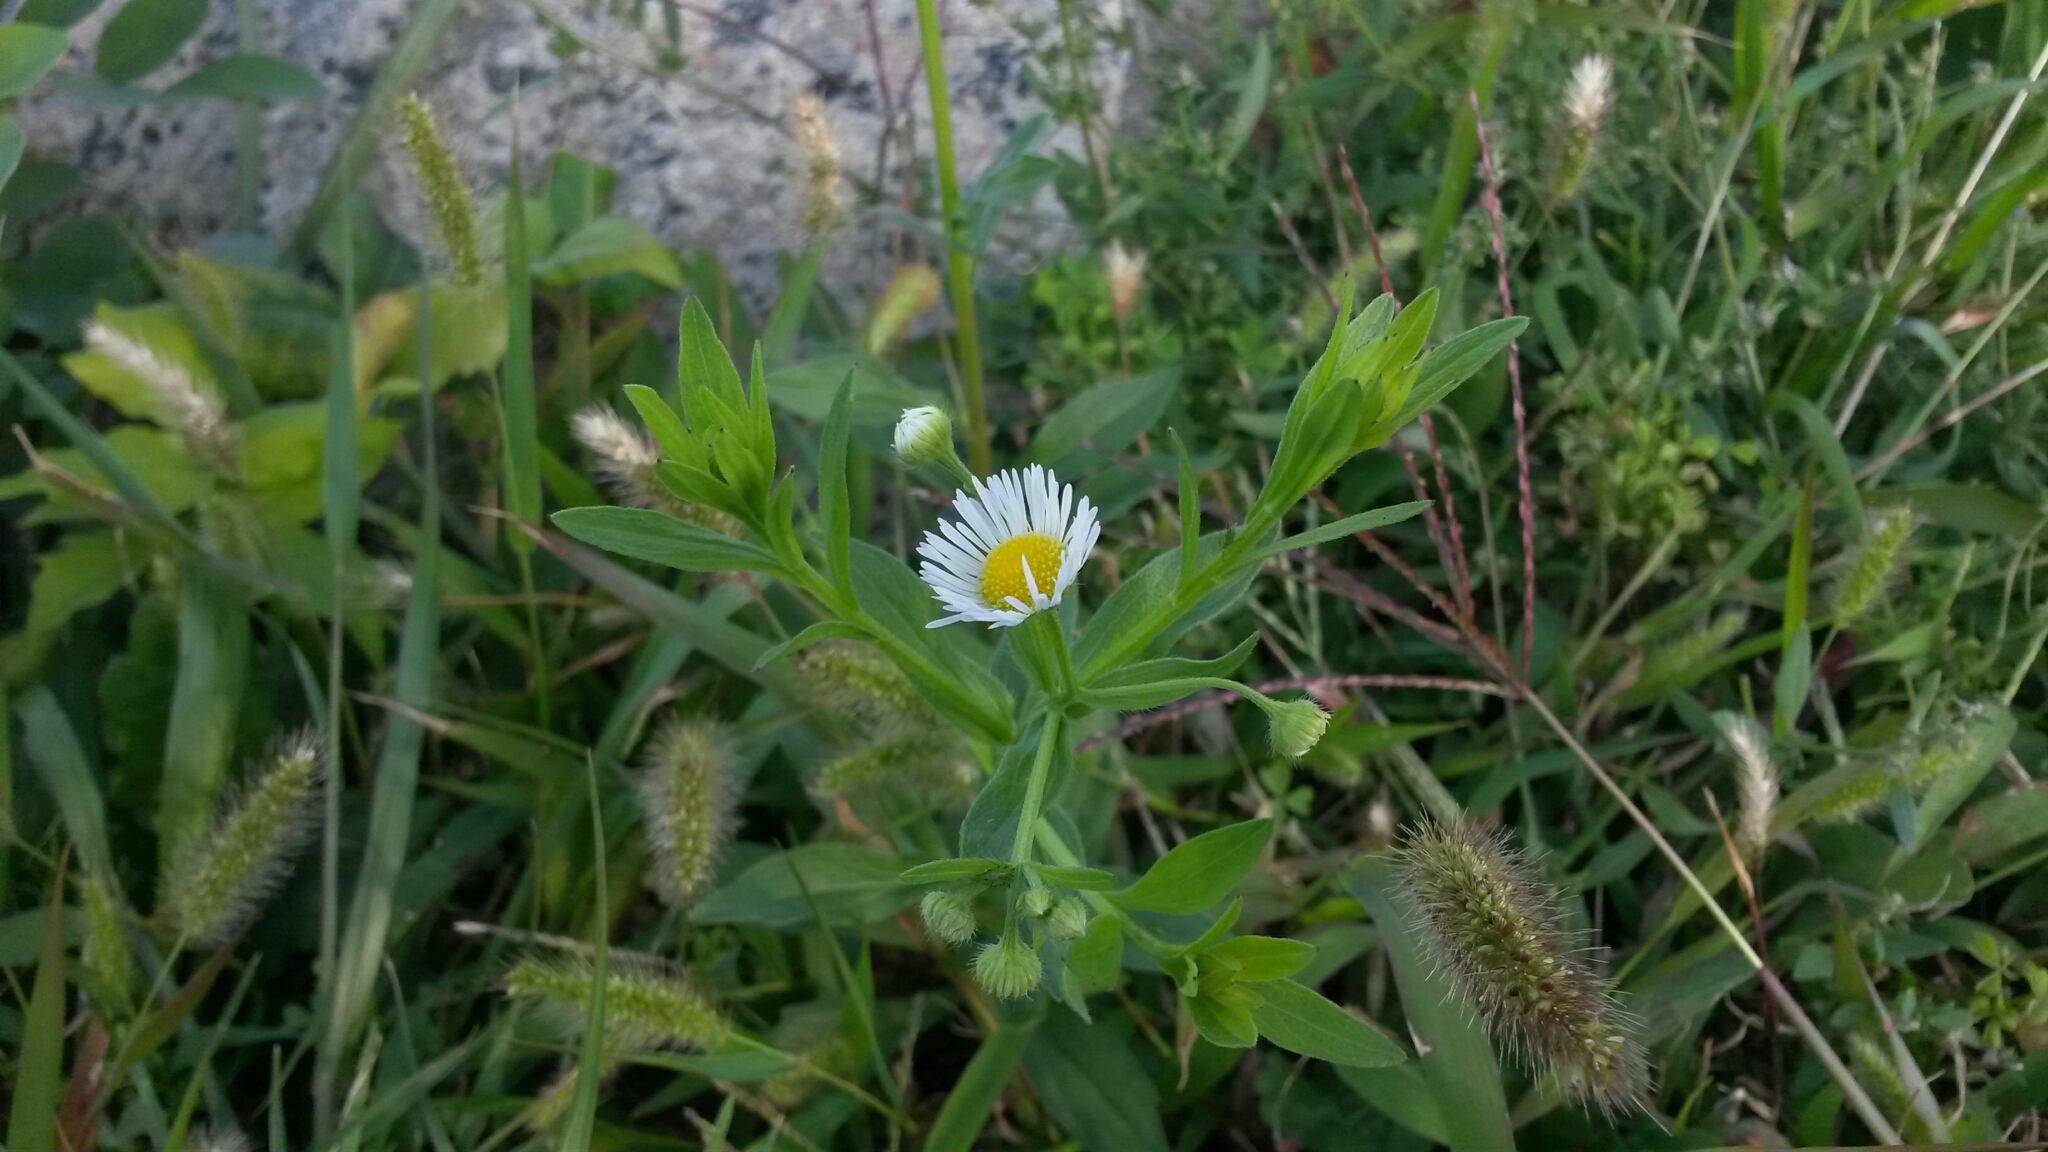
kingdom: Plantae
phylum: Tracheophyta
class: Magnoliopsida
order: Asterales
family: Asteraceae
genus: Erigeron
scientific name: Erigeron annuus
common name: Tall fleabane
